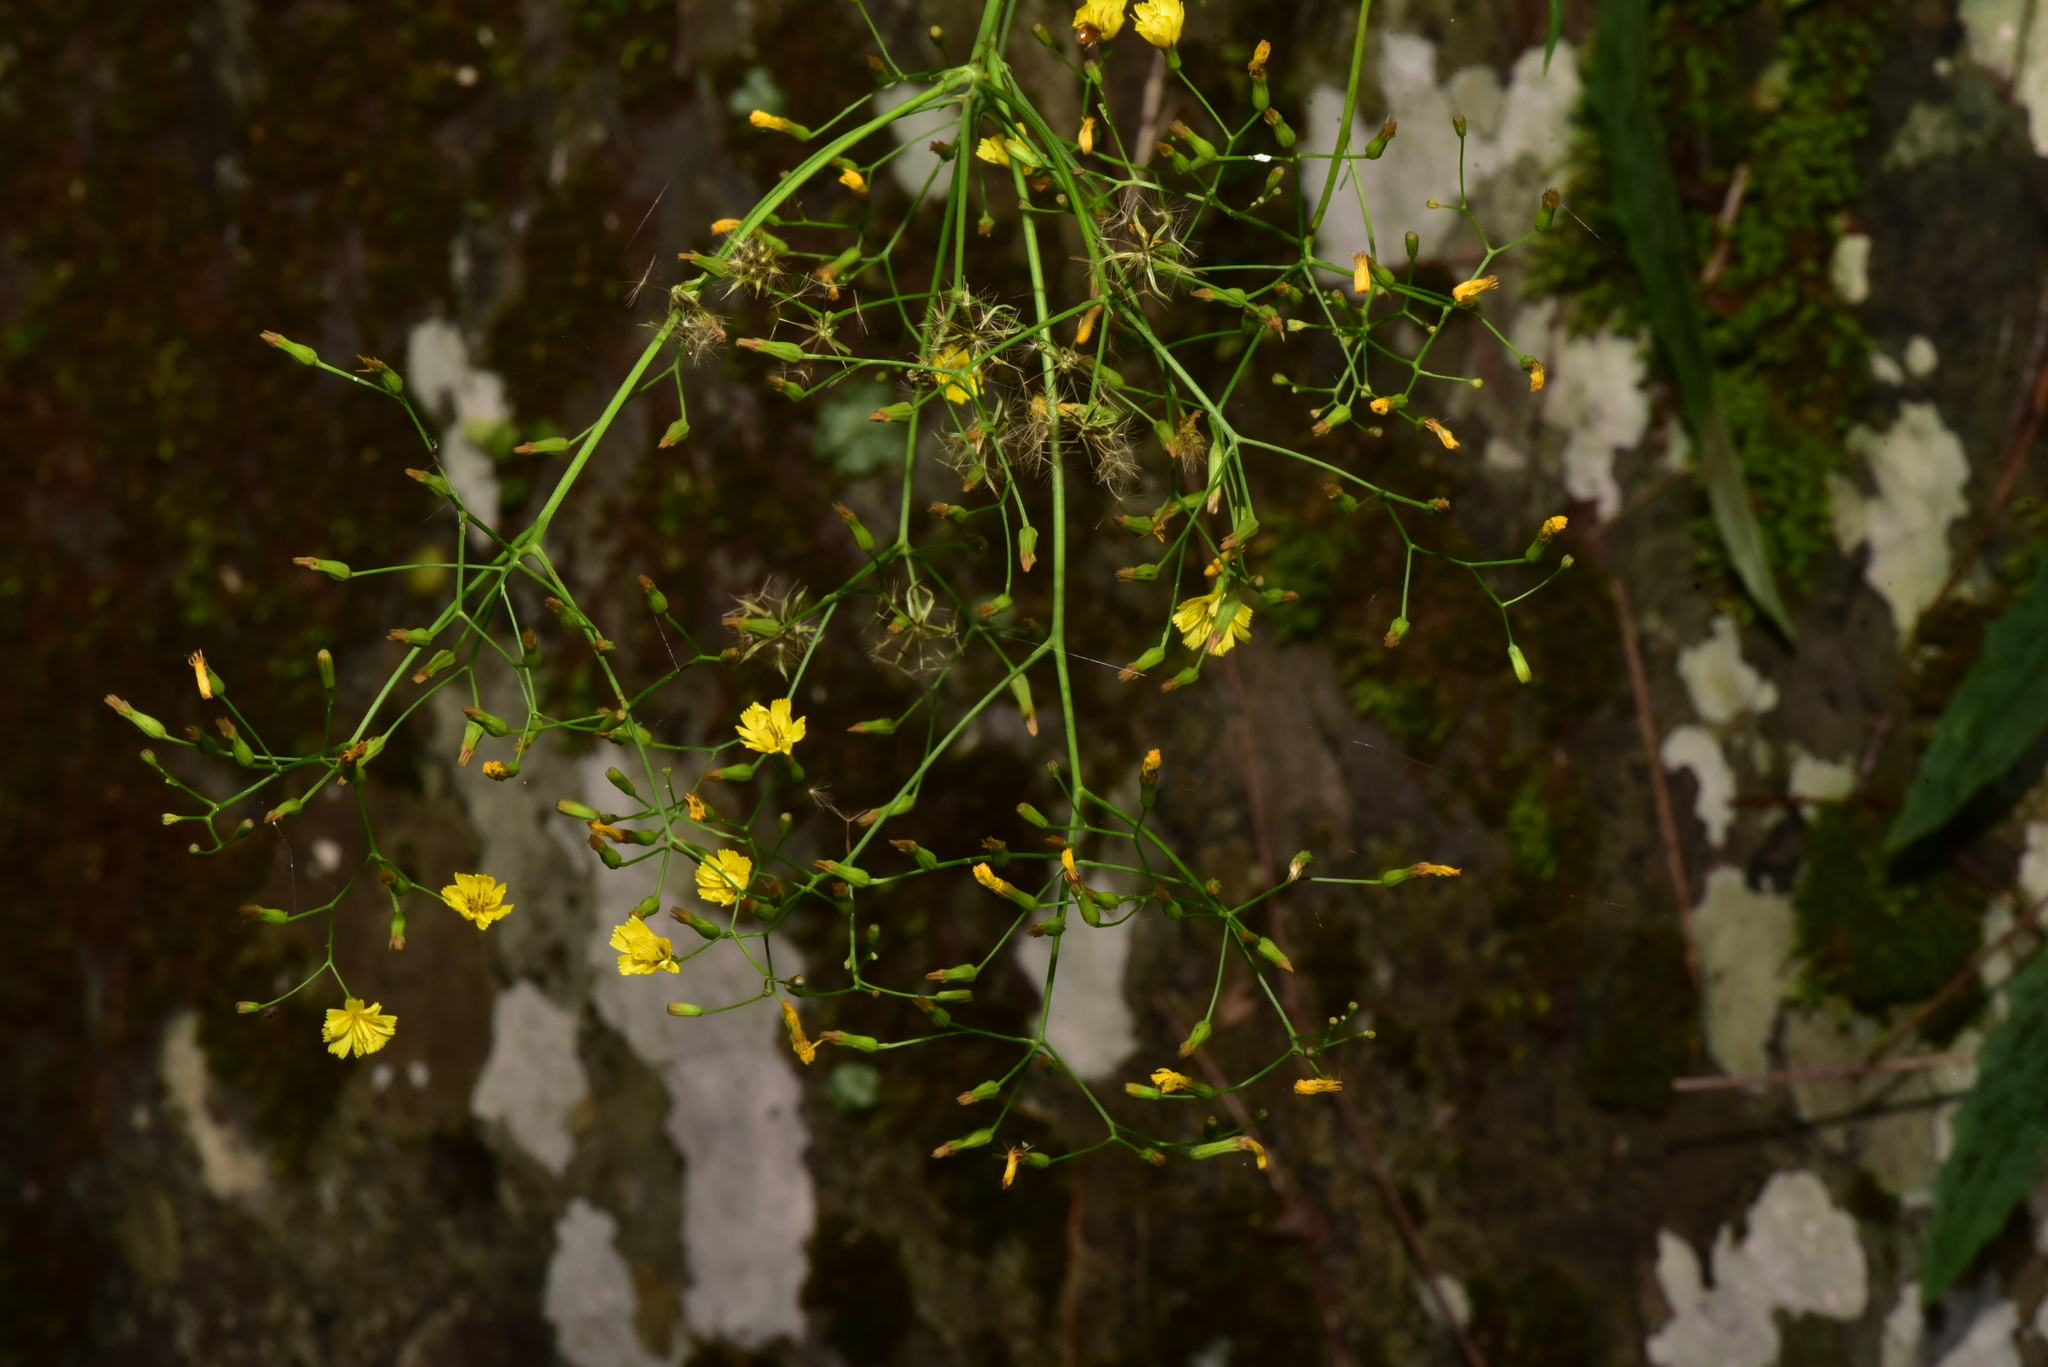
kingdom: Plantae
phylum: Tracheophyta
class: Magnoliopsida
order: Asterales
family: Asteraceae
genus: Ixeridium
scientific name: Ixeridium laevigatum
